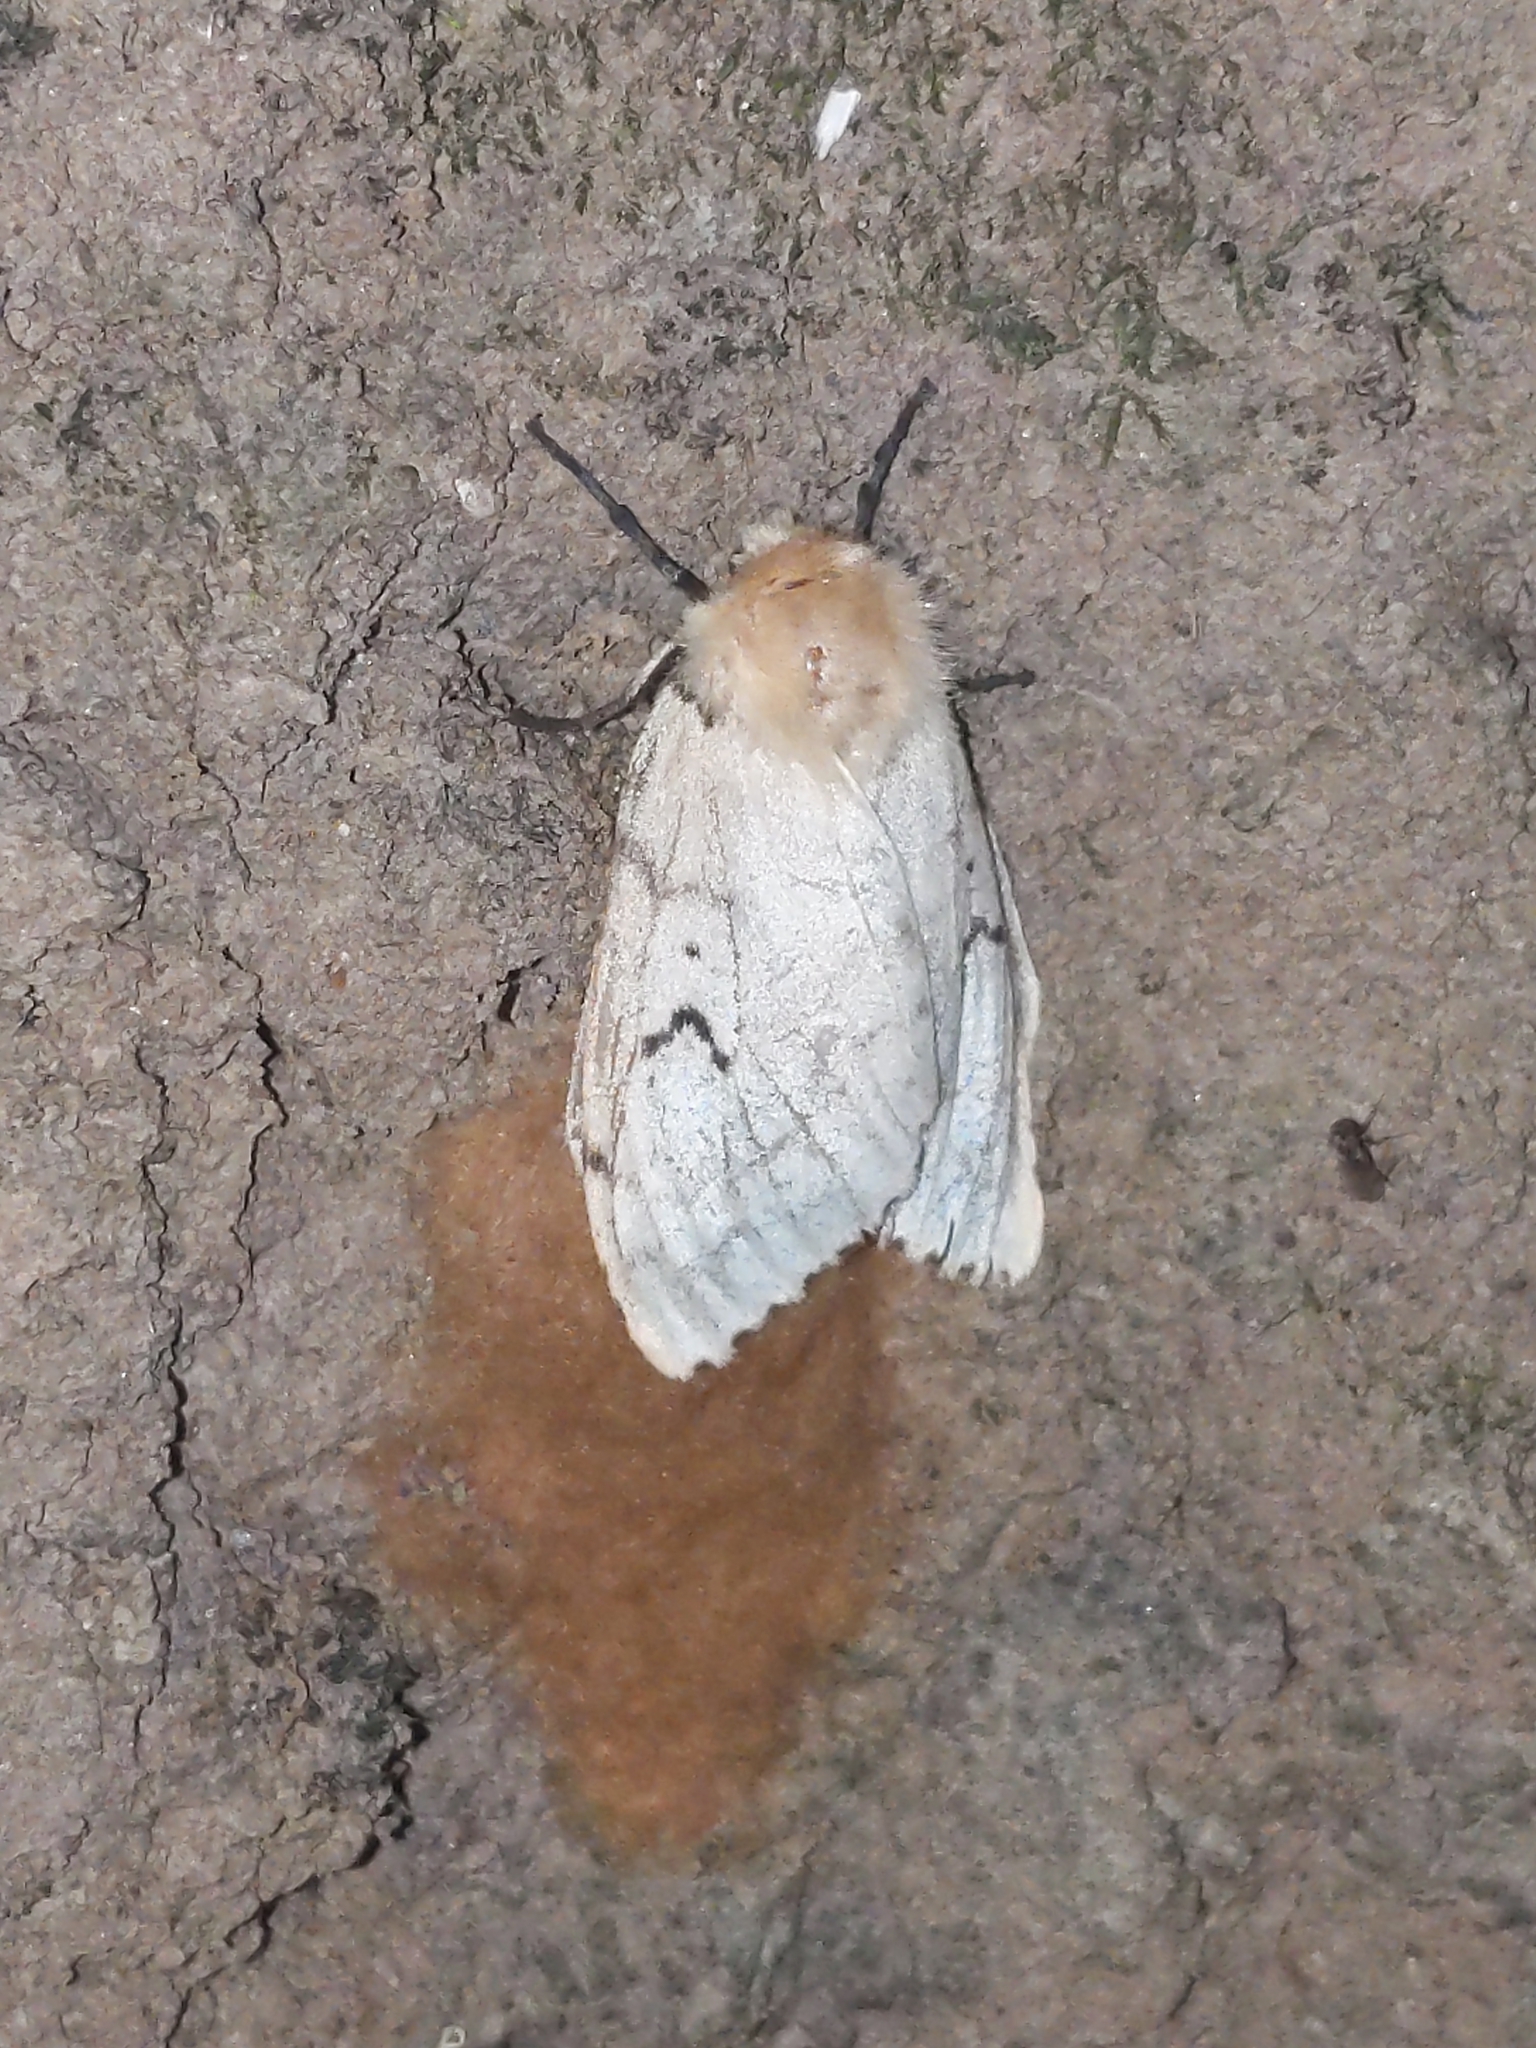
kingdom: Animalia
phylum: Arthropoda
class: Insecta
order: Lepidoptera
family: Erebidae
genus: Lymantria
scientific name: Lymantria dispar
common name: Gypsy moth
